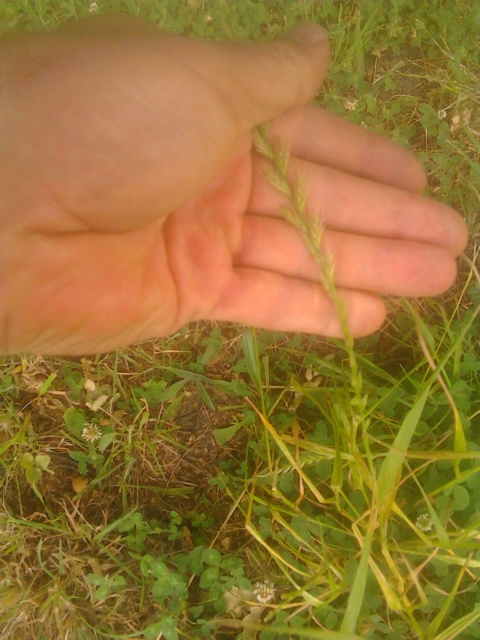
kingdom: Plantae
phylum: Tracheophyta
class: Liliopsida
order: Poales
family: Poaceae
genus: Lolium
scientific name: Lolium multiflorum
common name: Annual ryegrass
